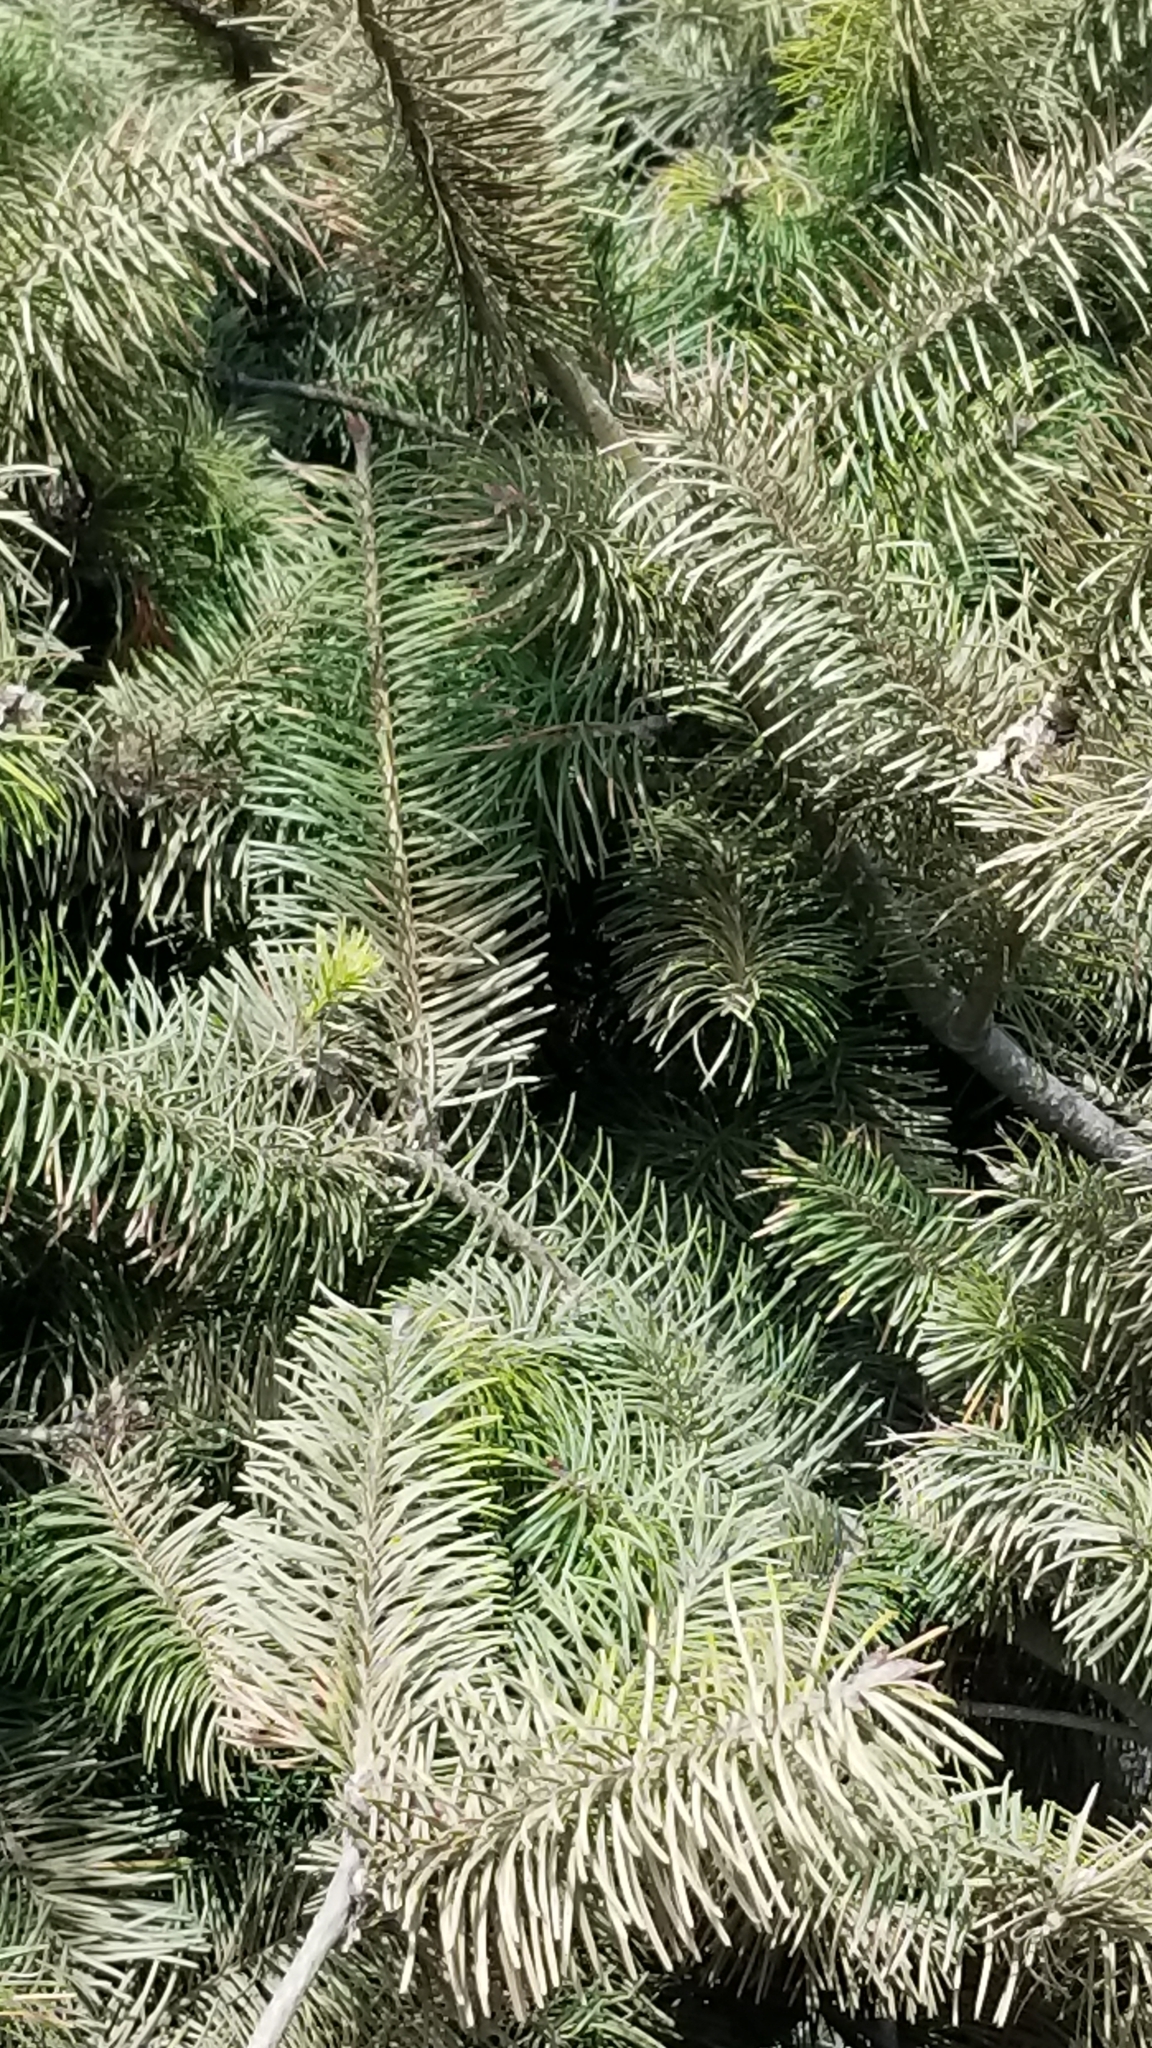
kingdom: Plantae
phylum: Tracheophyta
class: Pinopsida
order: Pinales
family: Pinaceae
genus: Pseudotsuga
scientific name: Pseudotsuga menziesii
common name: Douglas fir
